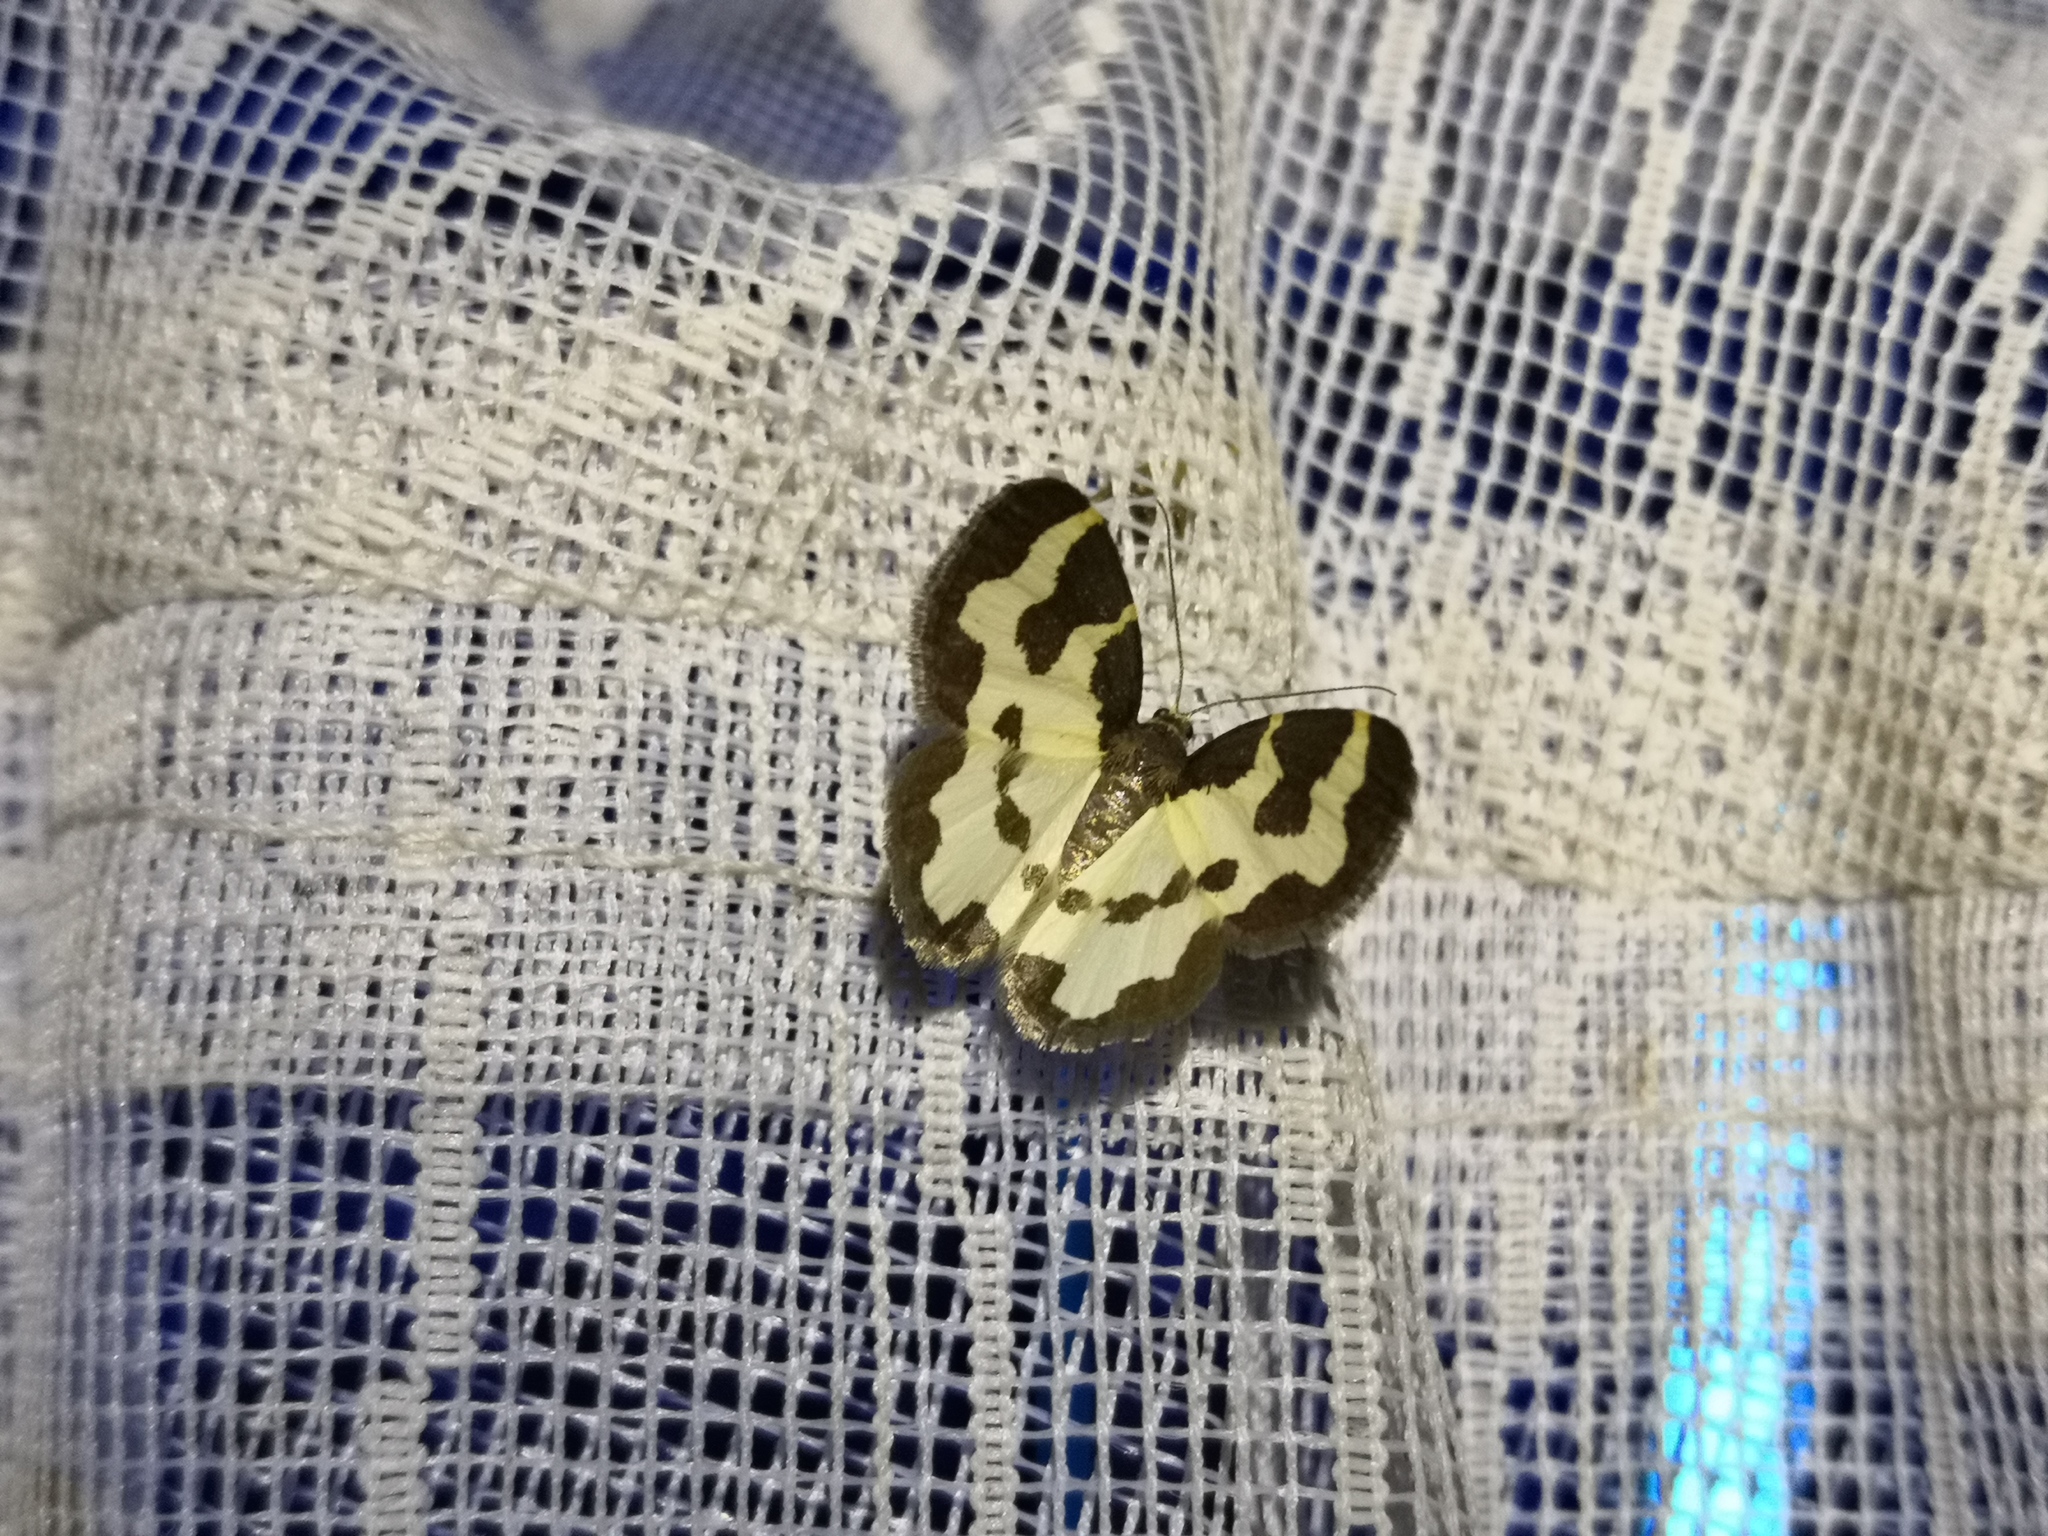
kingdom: Animalia
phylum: Arthropoda
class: Insecta
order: Lepidoptera
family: Geometridae
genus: Lomaspilis
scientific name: Lomaspilis marginata
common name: Clouded border
